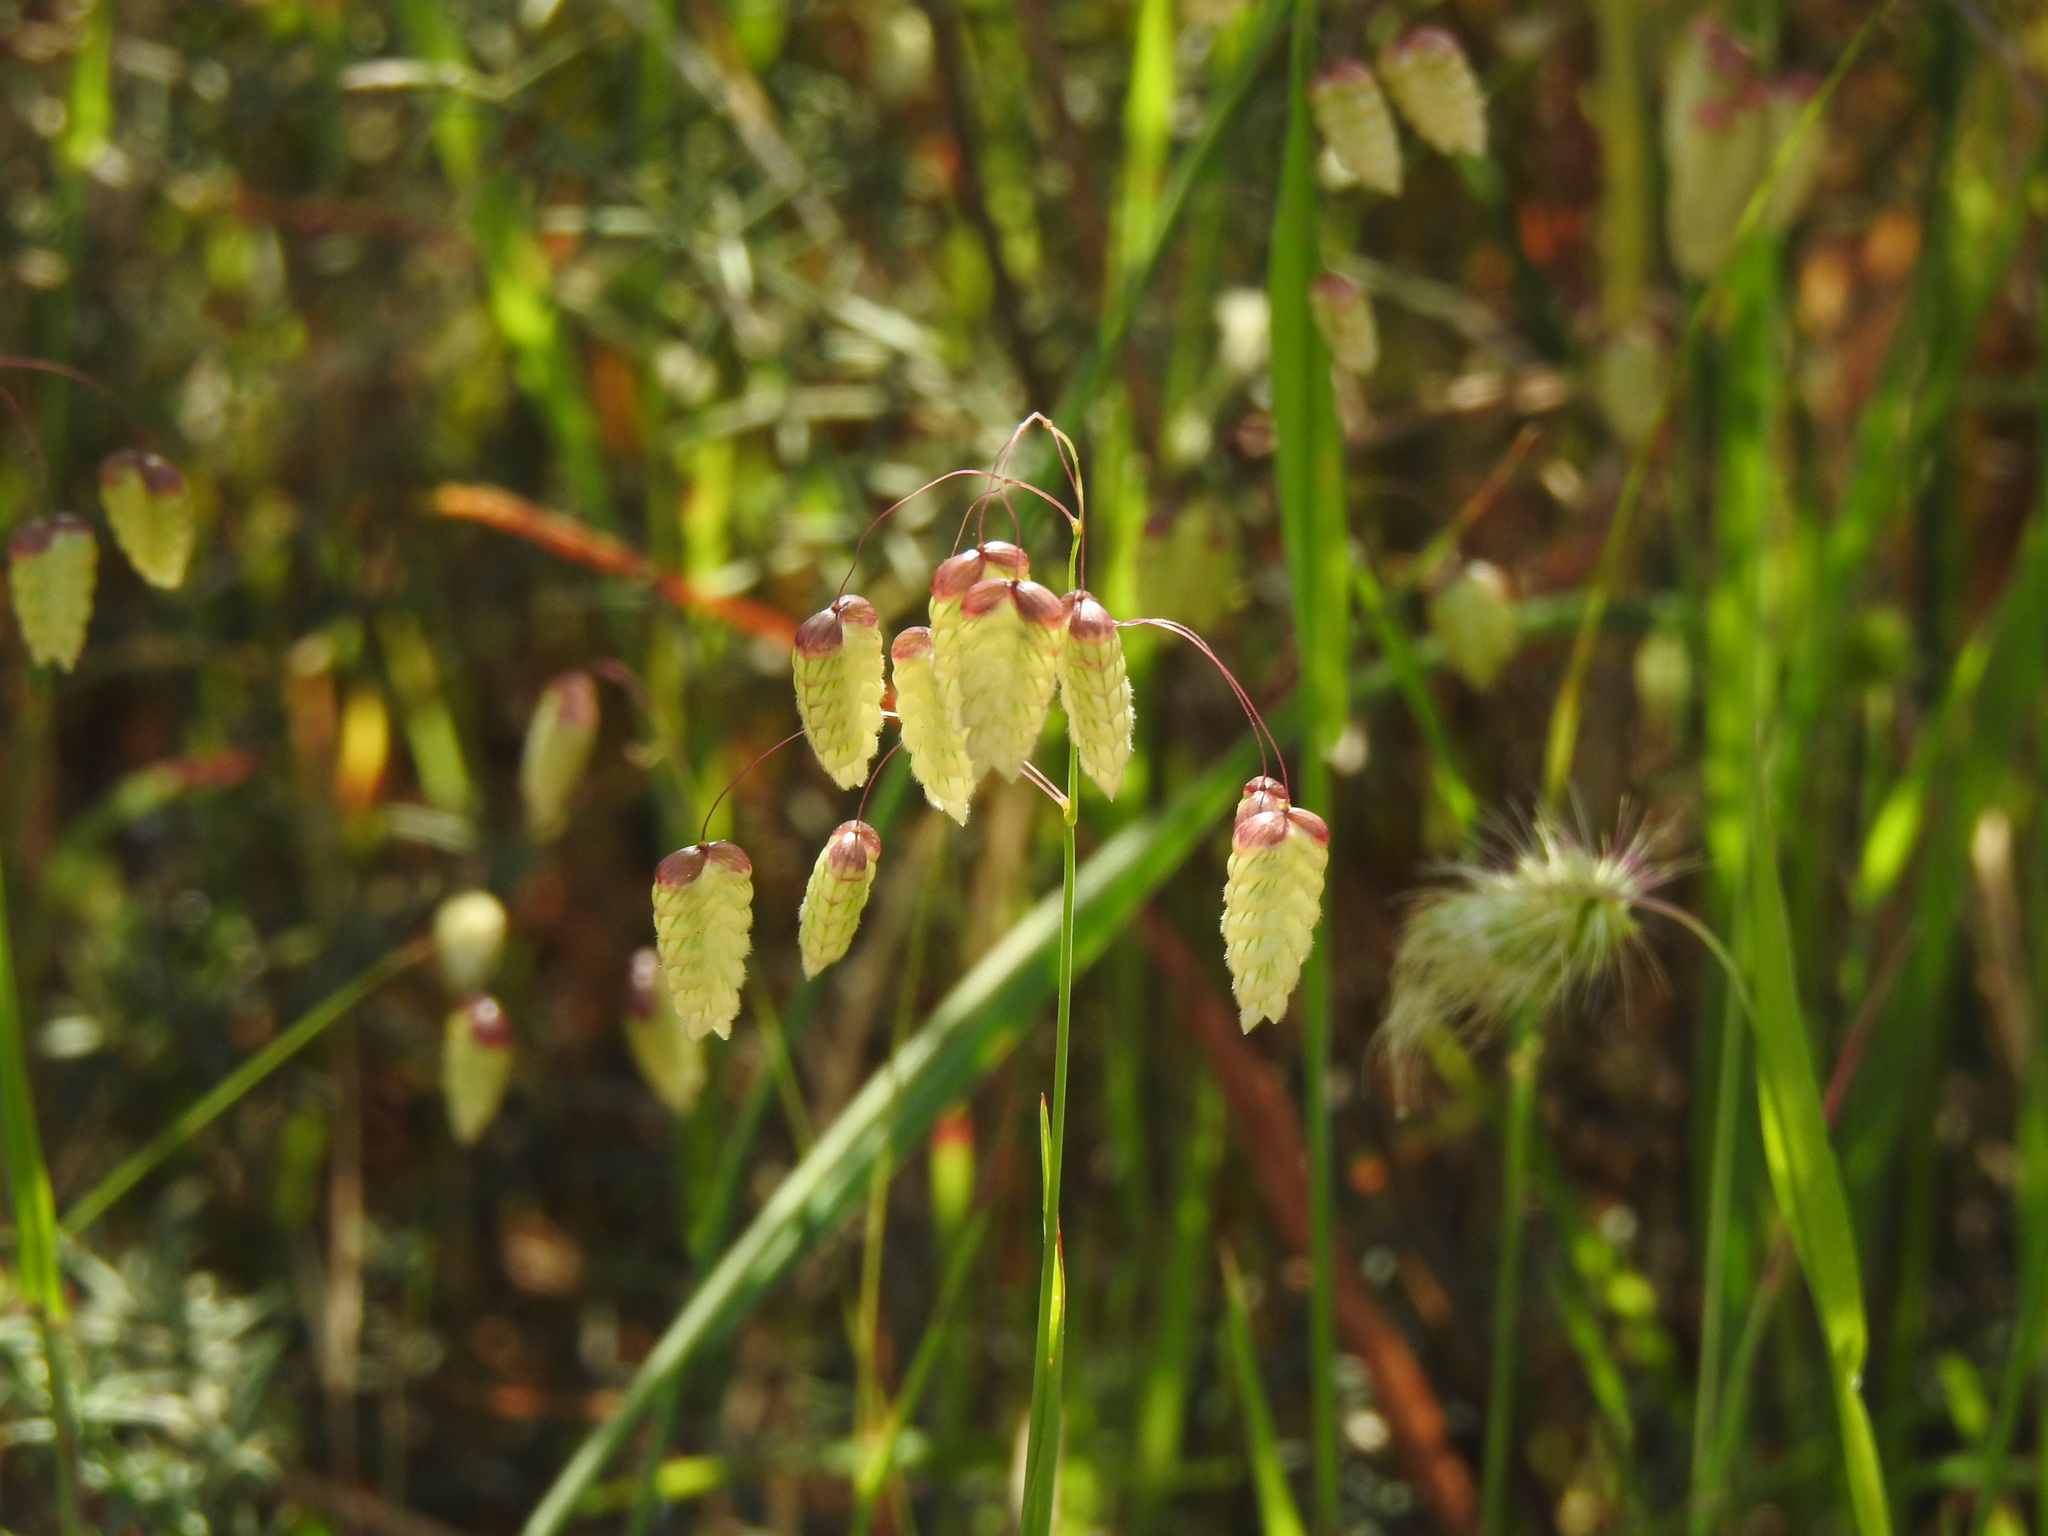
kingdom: Plantae
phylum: Tracheophyta
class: Liliopsida
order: Poales
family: Poaceae
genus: Briza
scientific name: Briza maxima
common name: Big quakinggrass
